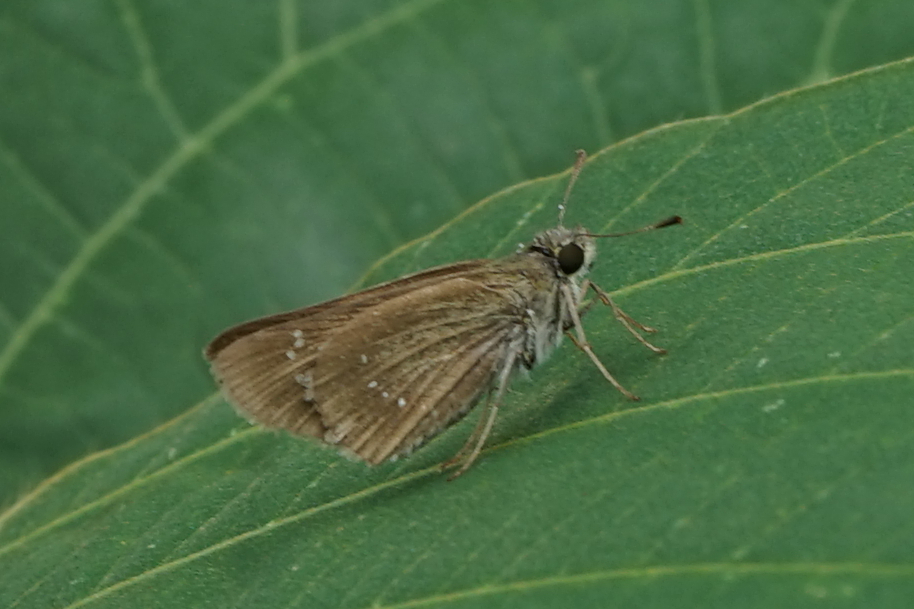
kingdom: Animalia
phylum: Arthropoda
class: Insecta
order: Lepidoptera
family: Hesperiidae
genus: Pelopidas
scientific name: Pelopidas mathias
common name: Black-branded swift
